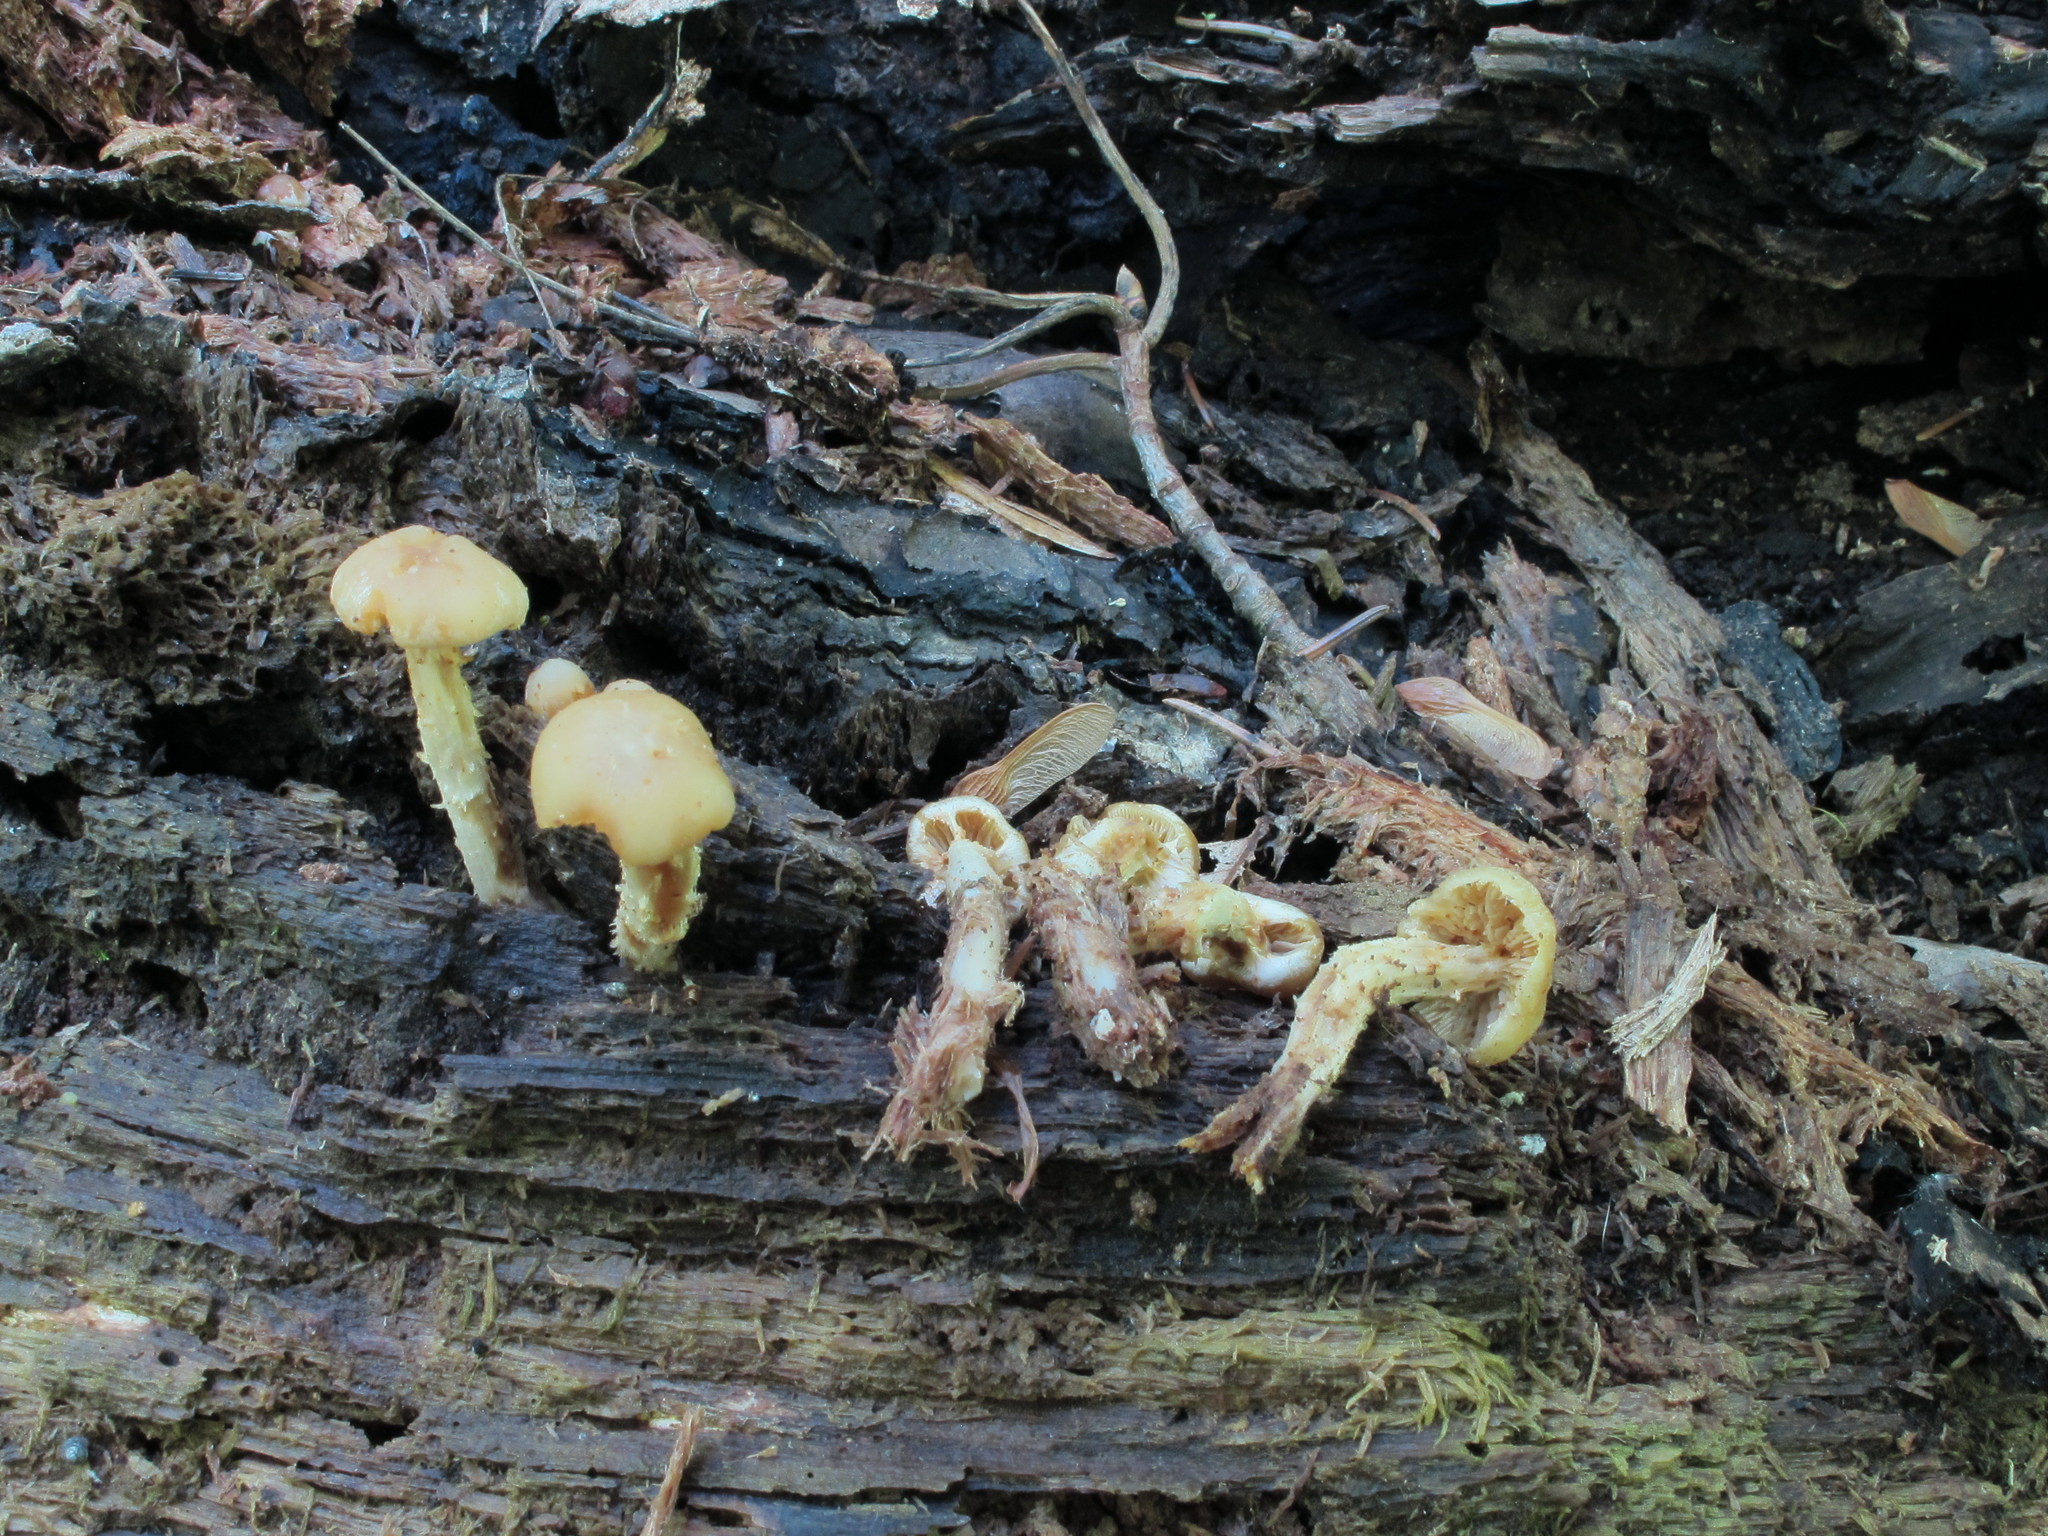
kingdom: Fungi
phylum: Basidiomycota
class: Agaricomycetes
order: Agaricales
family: Strophariaceae
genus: Kuehneromyces
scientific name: Kuehneromyces marginellus
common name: Sheathed woodtuft
